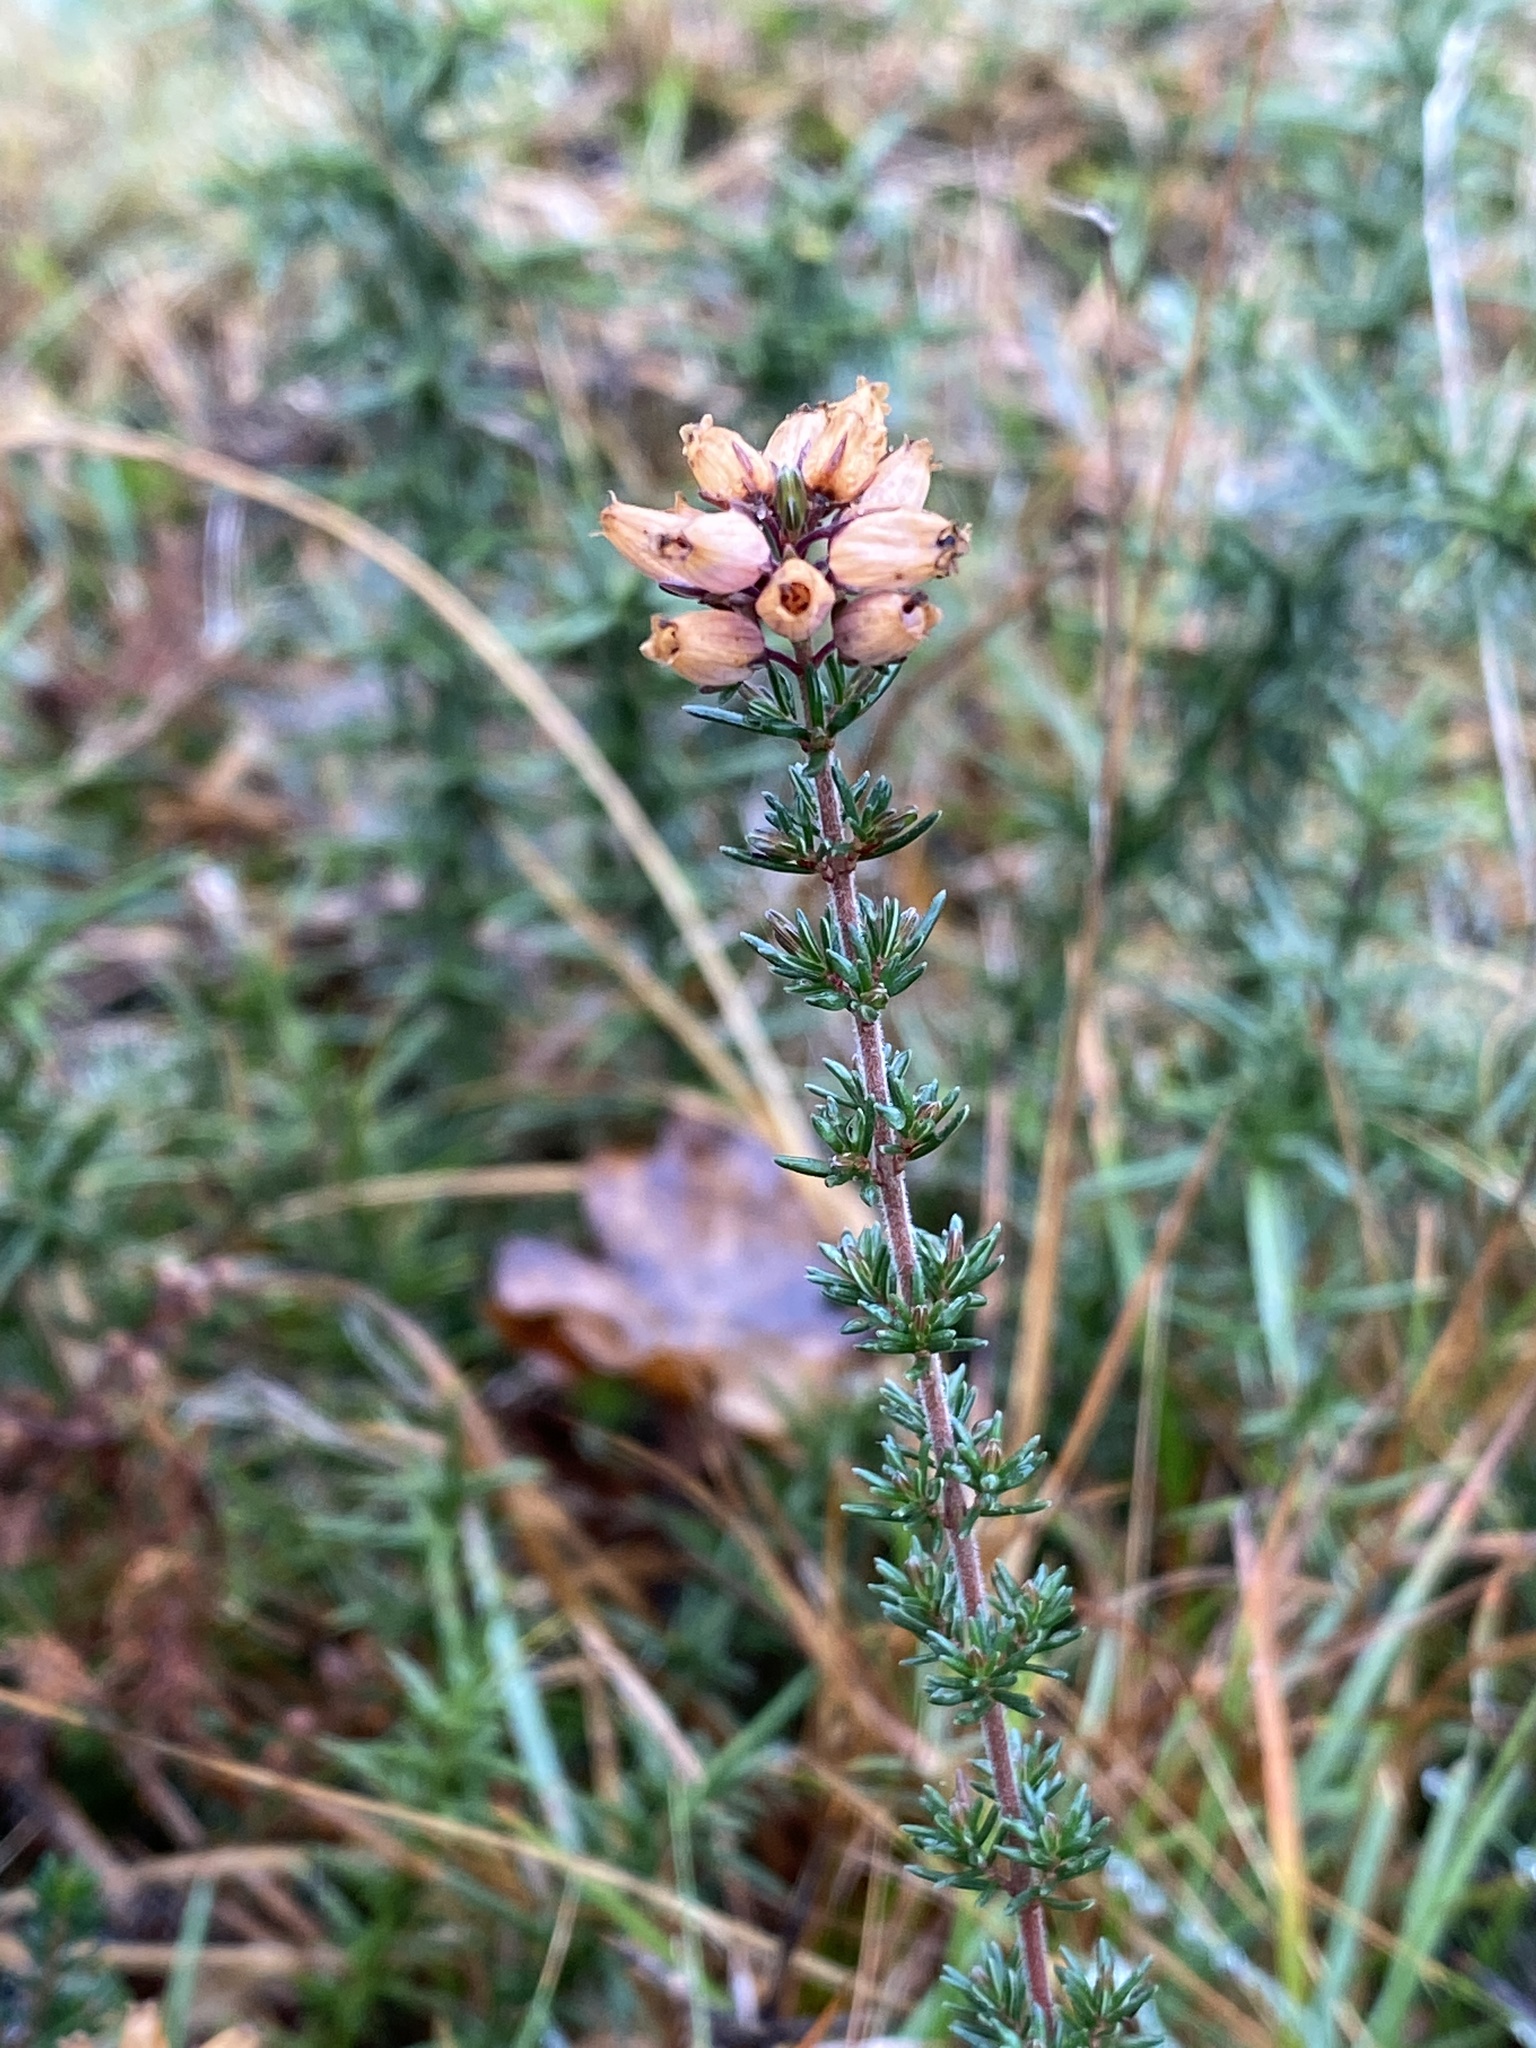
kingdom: Plantae
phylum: Tracheophyta
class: Magnoliopsida
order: Ericales
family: Ericaceae
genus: Erica
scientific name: Erica tetralix
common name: Cross-leaved heath
